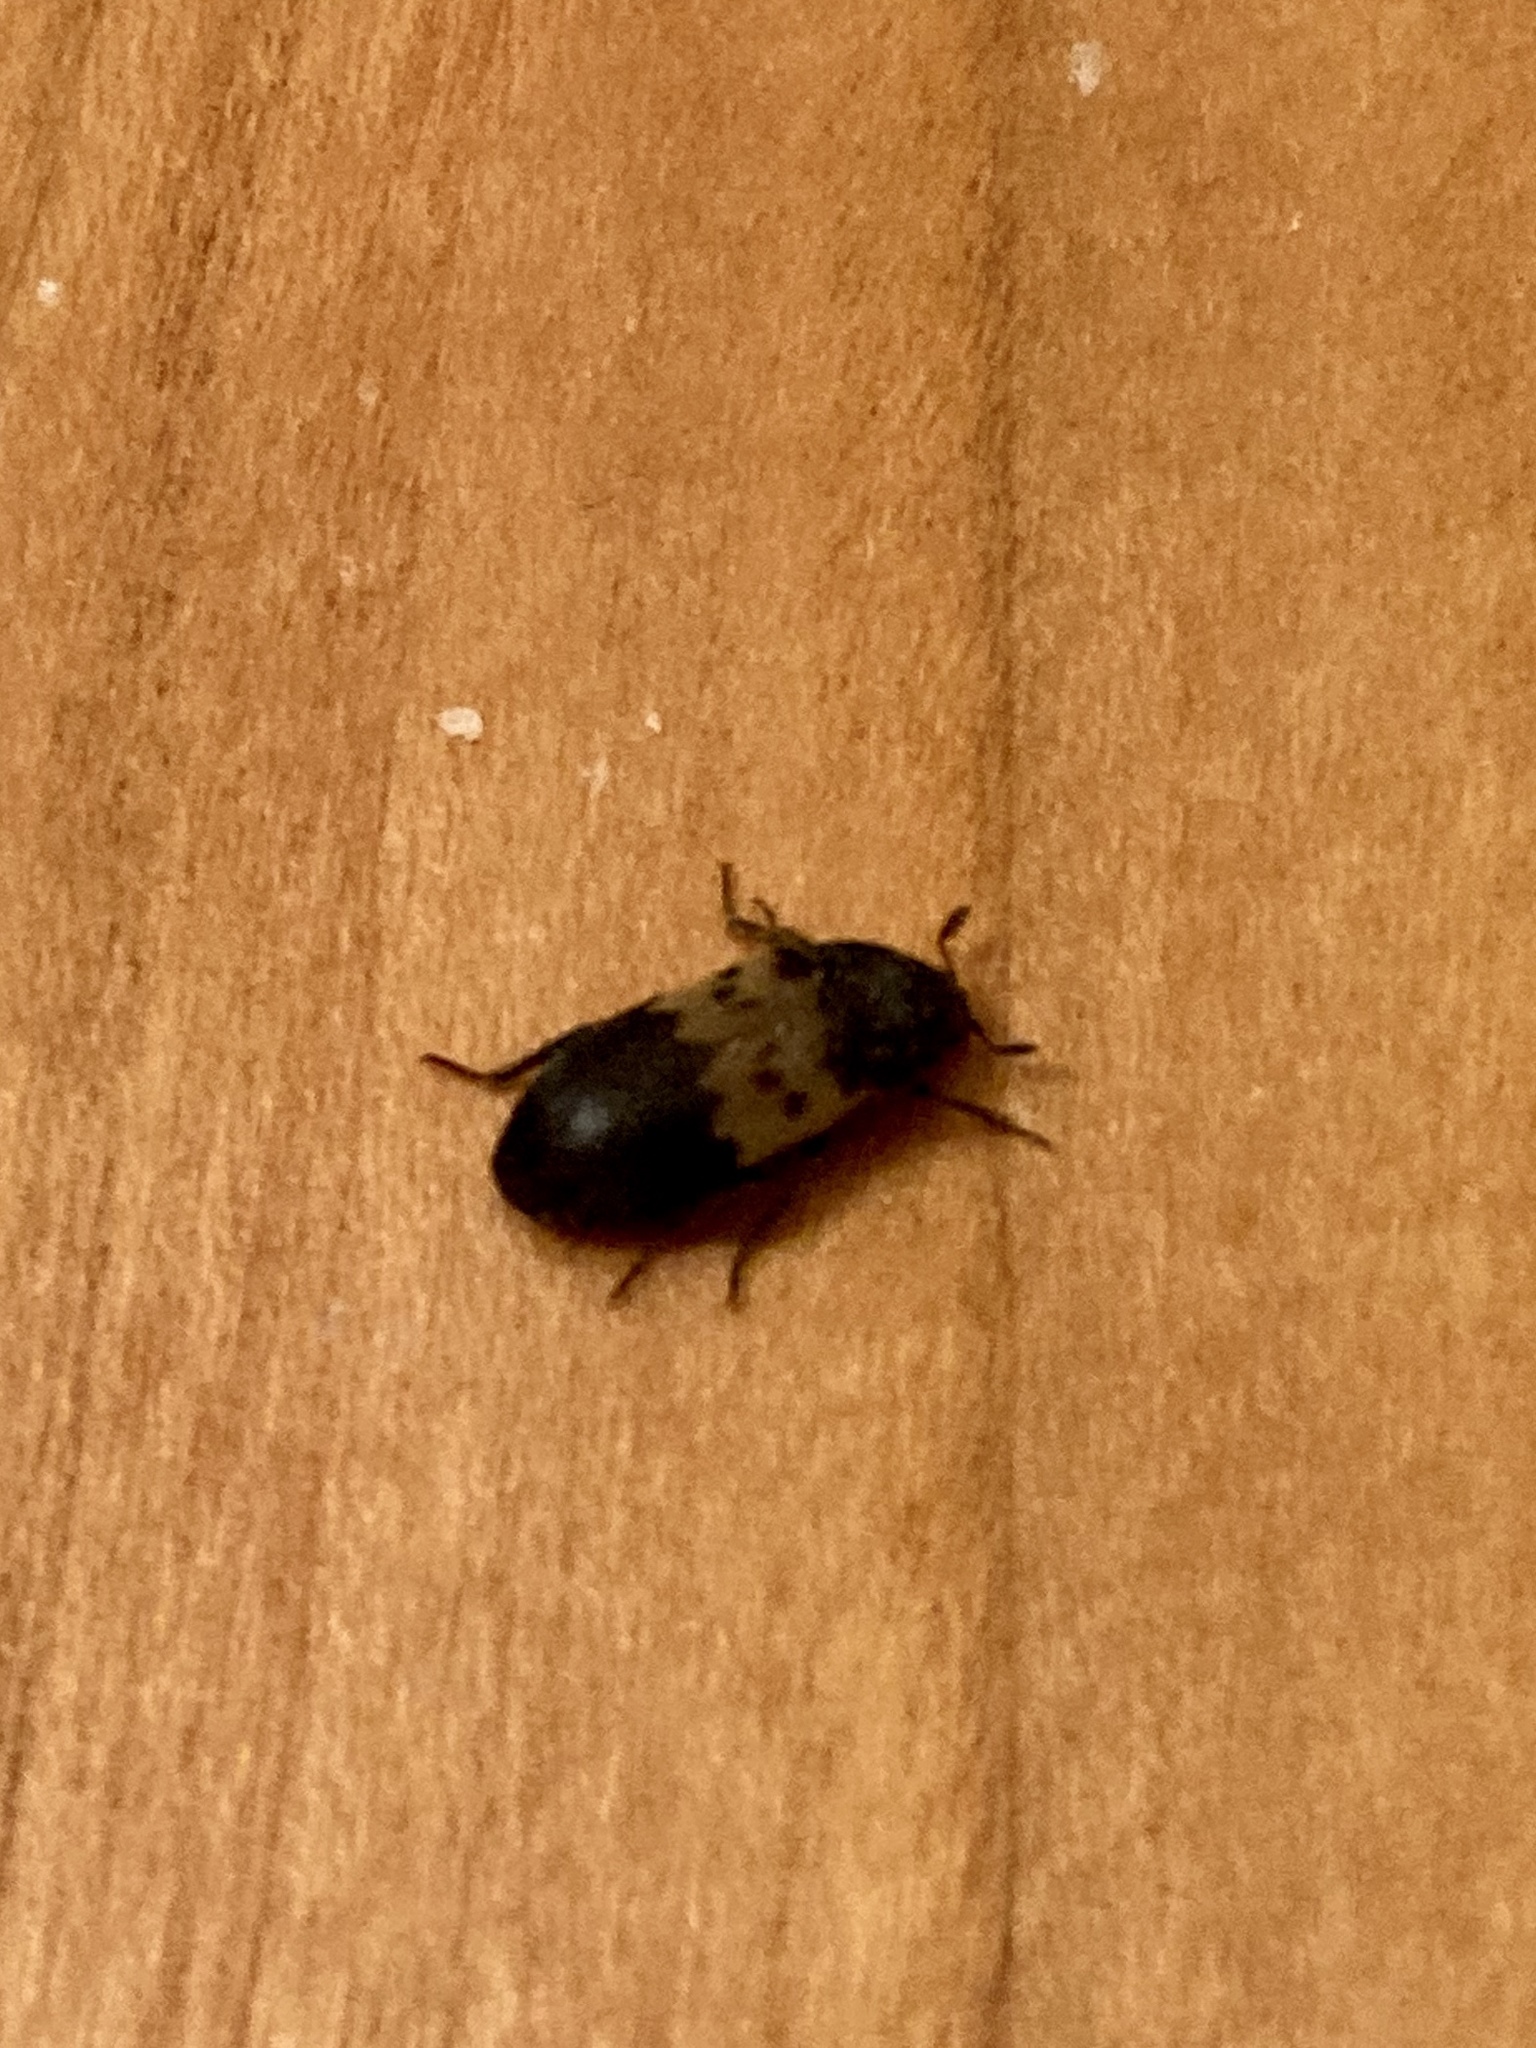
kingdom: Animalia
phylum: Arthropoda
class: Insecta
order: Coleoptera
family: Dermestidae
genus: Dermestes
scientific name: Dermestes lardarius
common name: Larder beetle
